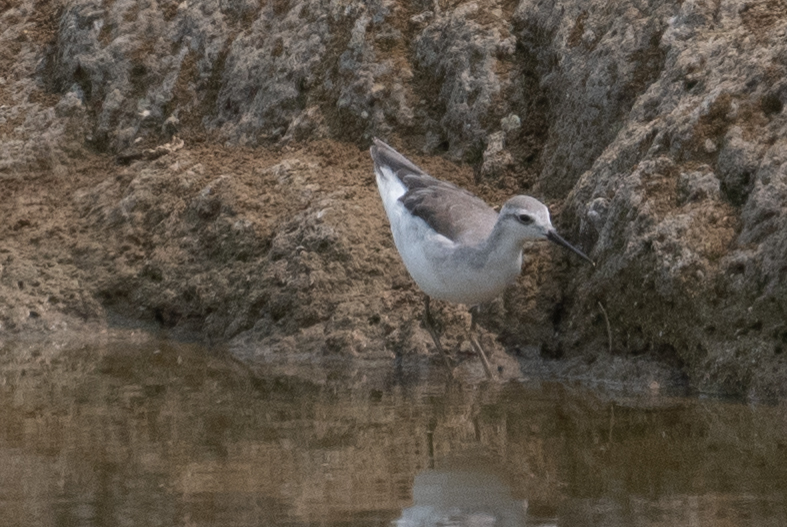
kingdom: Animalia
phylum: Chordata
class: Aves
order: Charadriiformes
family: Scolopacidae
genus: Phalaropus
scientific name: Phalaropus tricolor
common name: Wilson's phalarope
